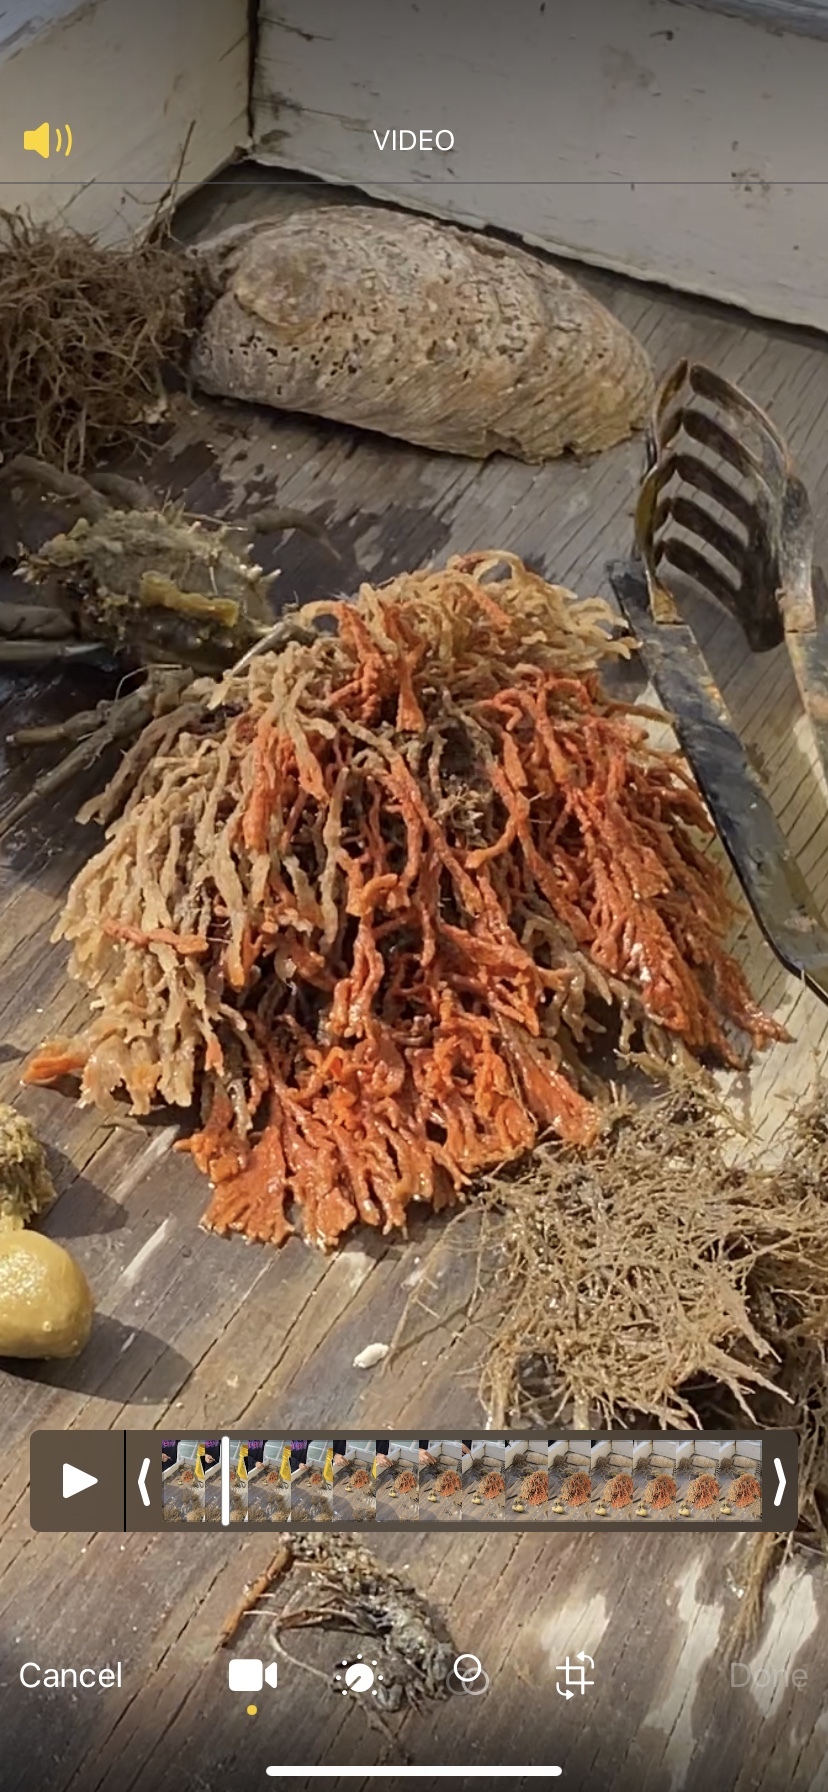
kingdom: Animalia
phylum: Porifera
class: Demospongiae
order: Poecilosclerida
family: Microcionidae
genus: Clathria
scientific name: Clathria prolifera
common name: Red beard sponge
